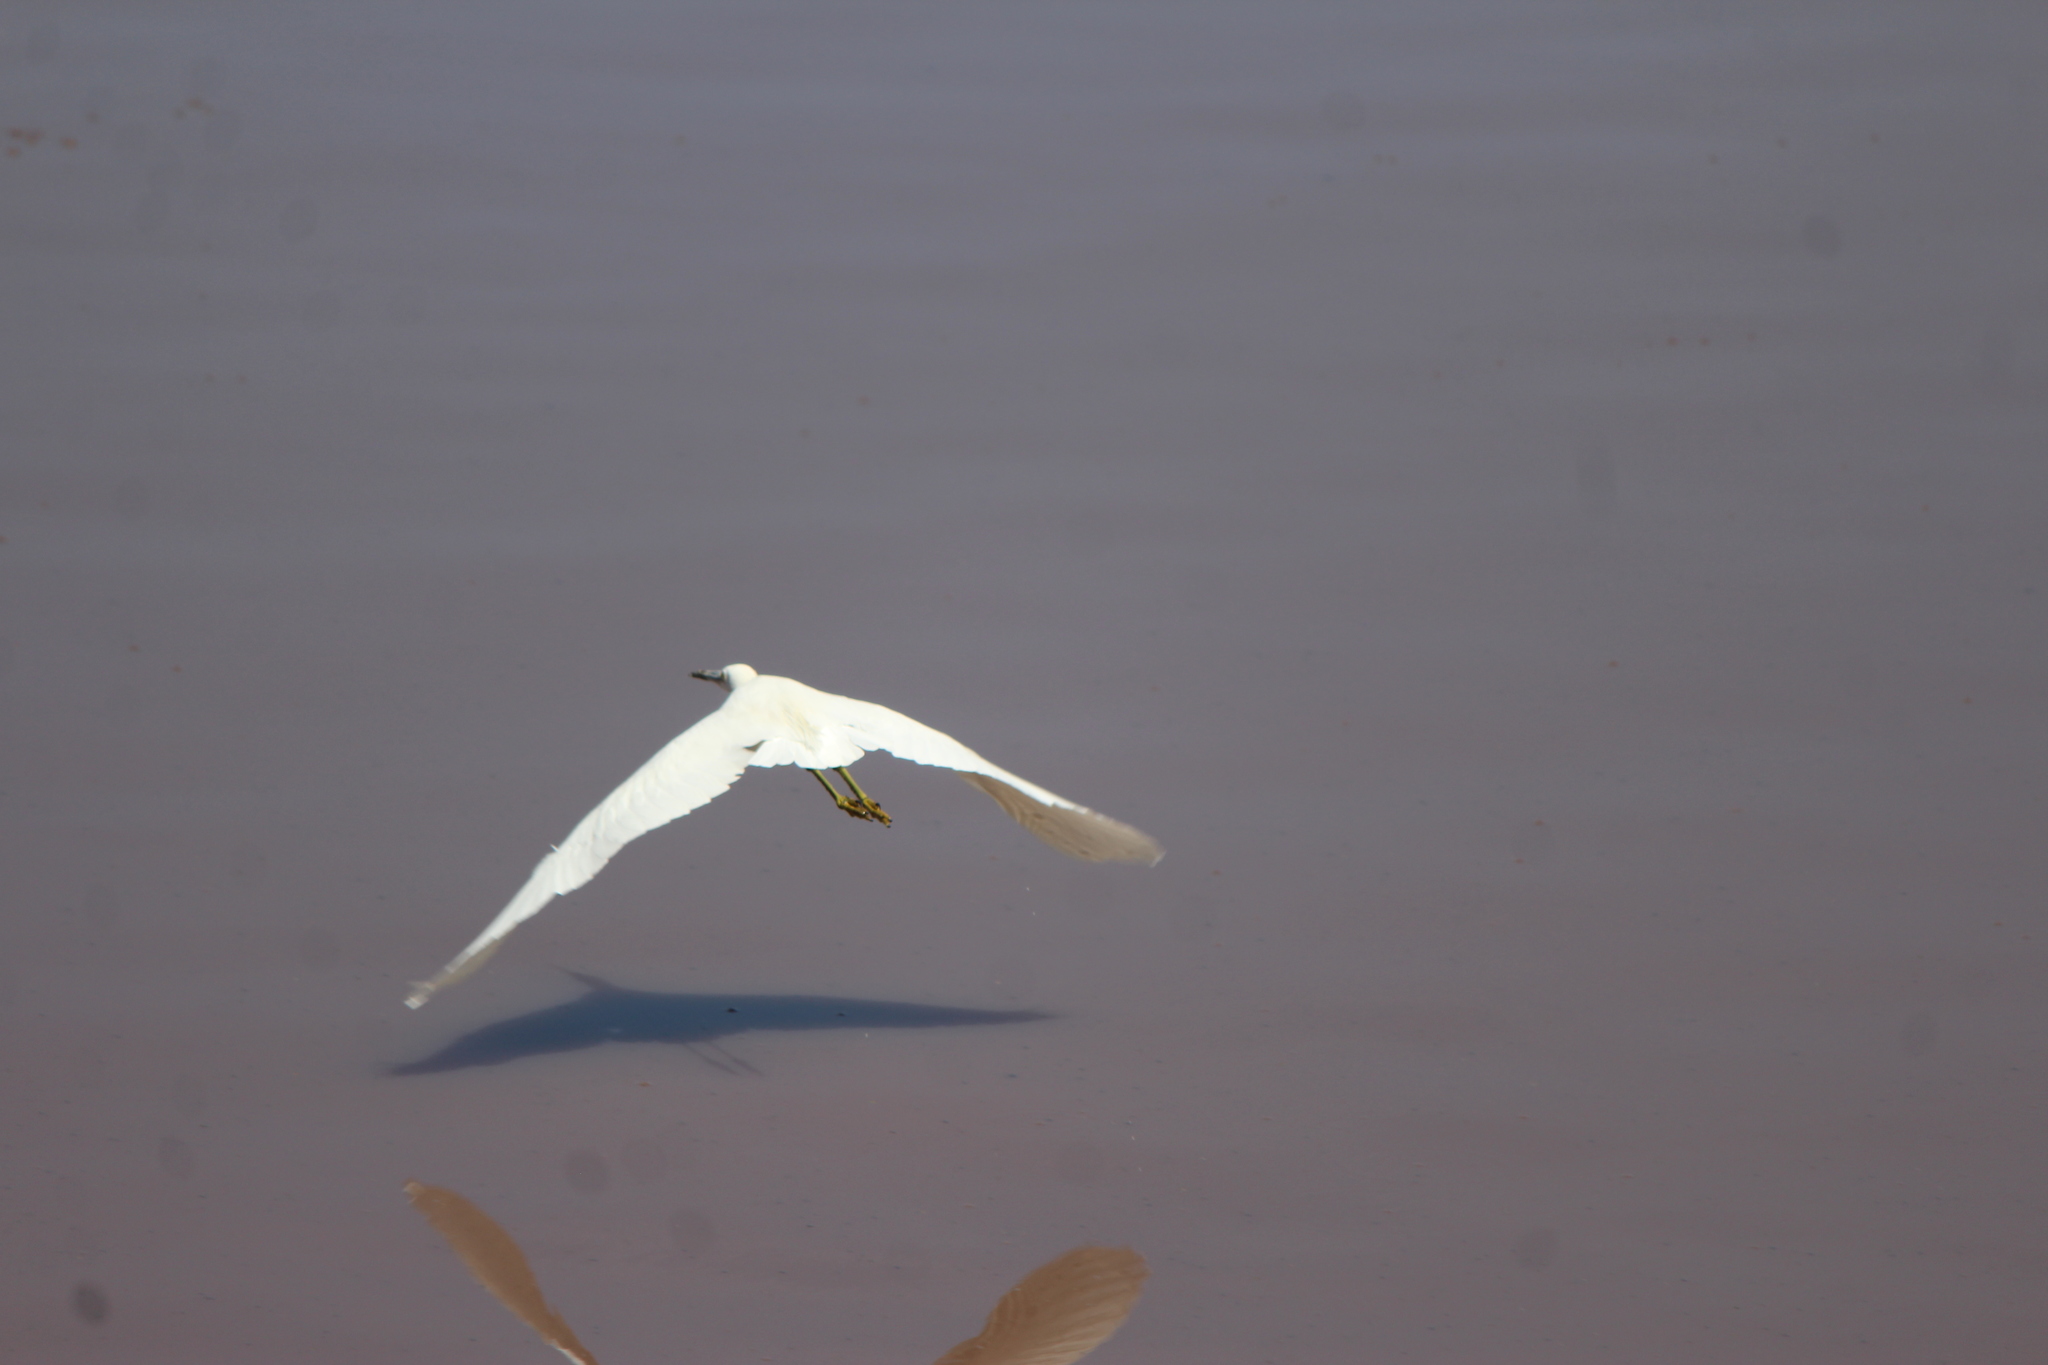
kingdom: Animalia
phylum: Chordata
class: Aves
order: Pelecaniformes
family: Ardeidae
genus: Egretta
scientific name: Egretta thula
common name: Snowy egret
